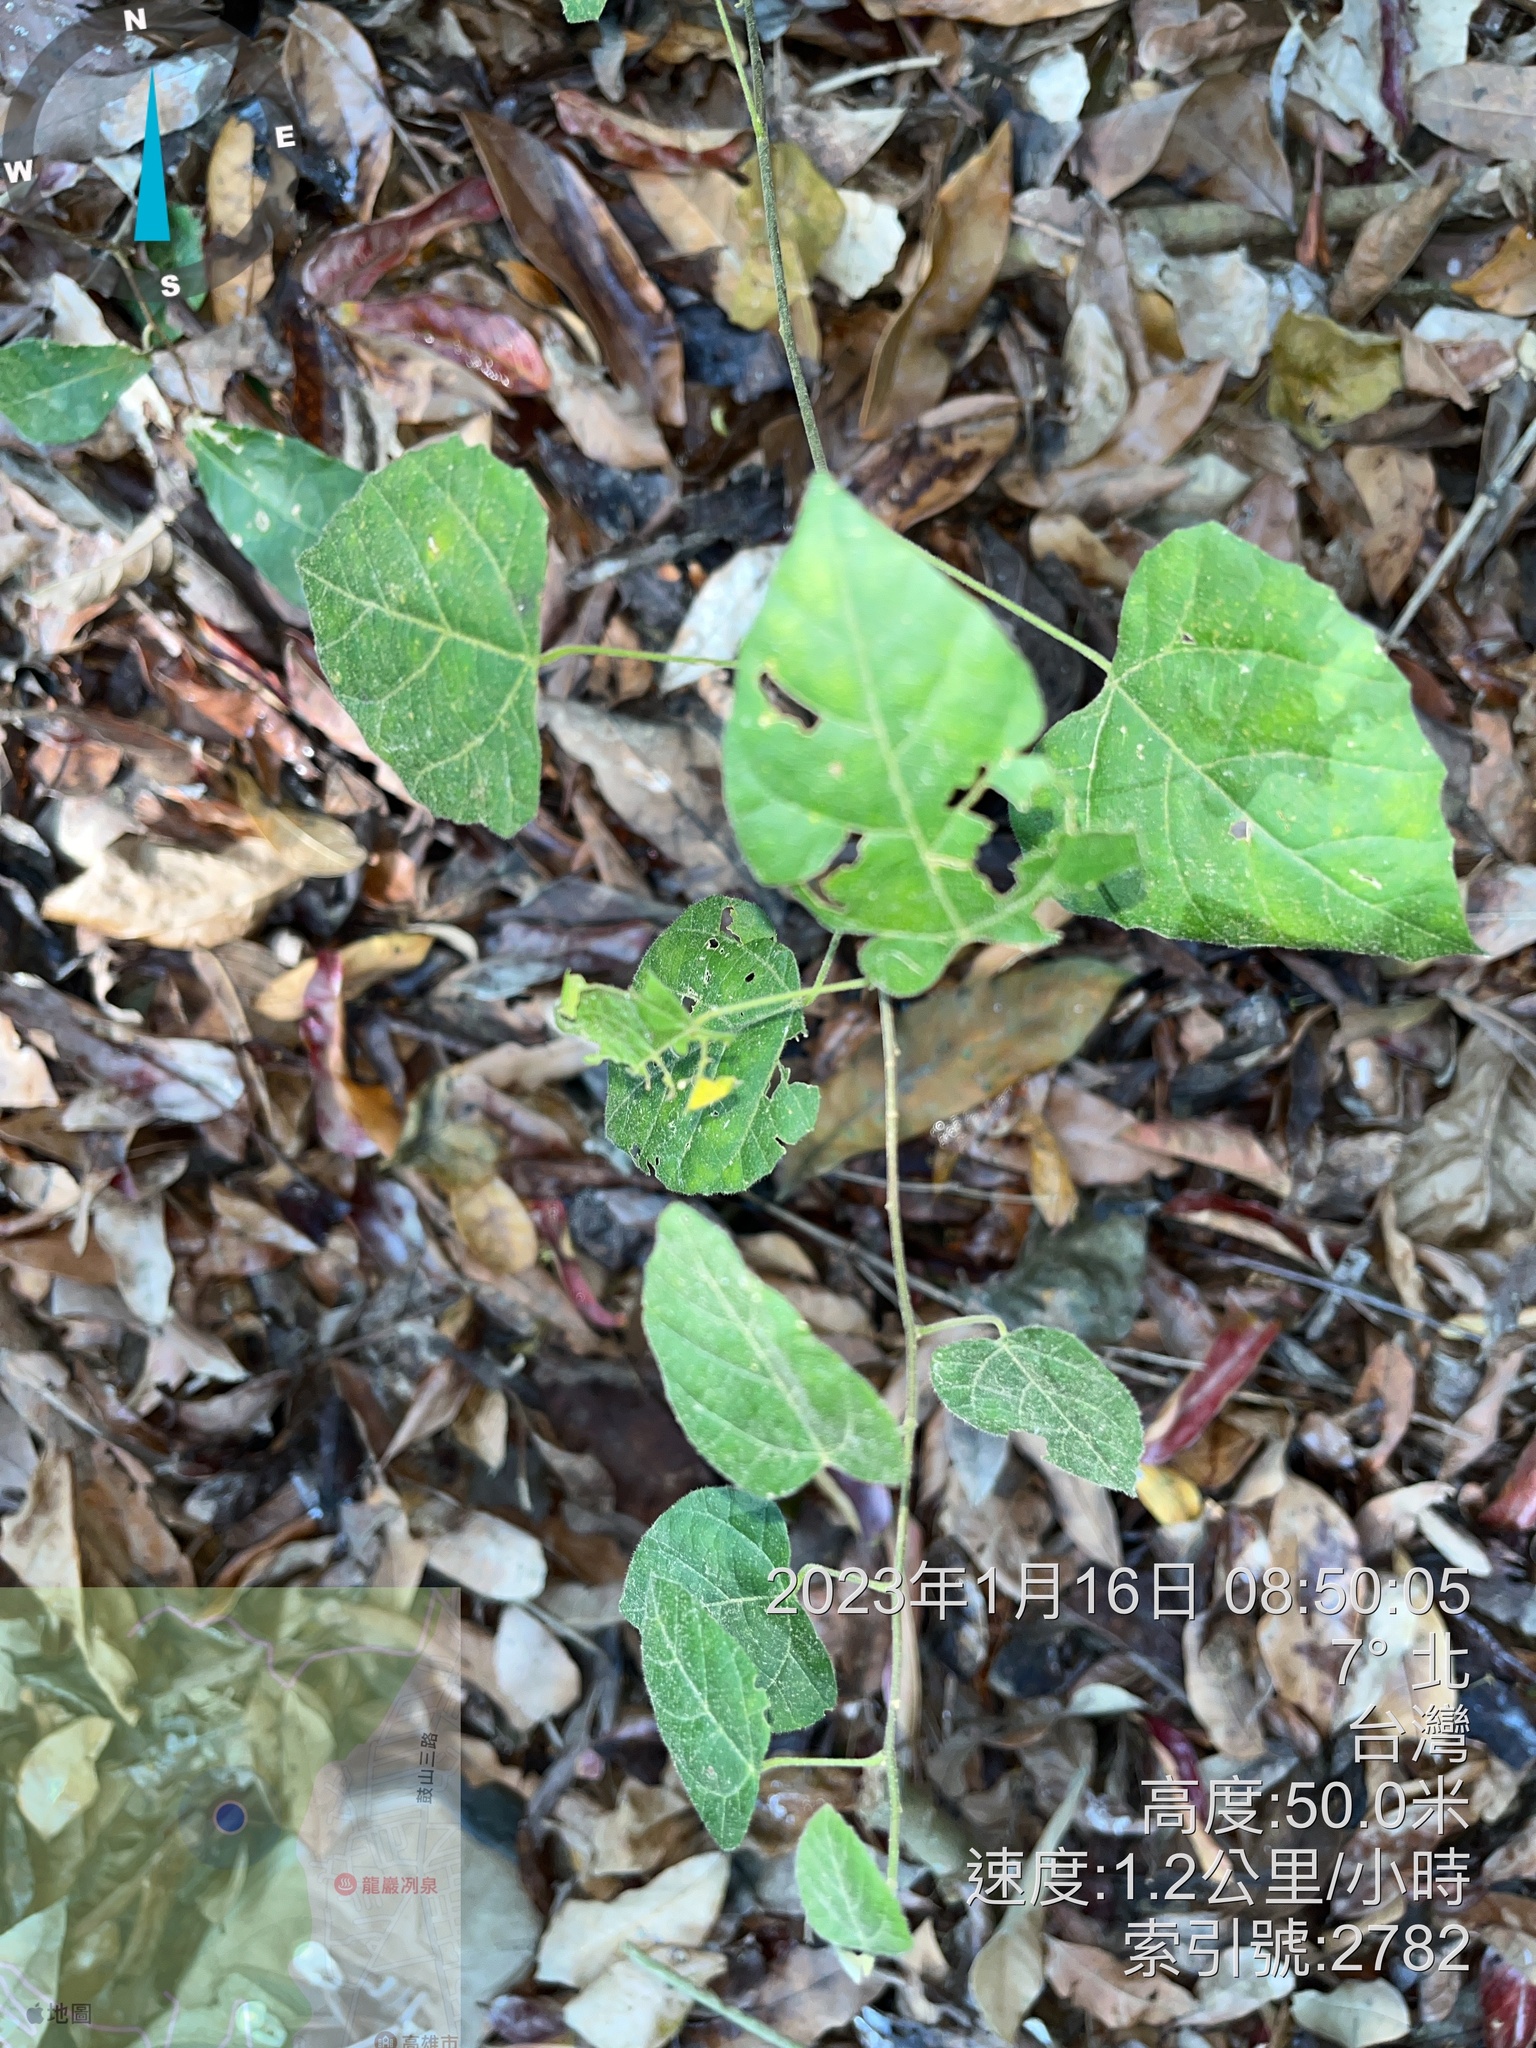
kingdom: Plantae
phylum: Tracheophyta
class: Magnoliopsida
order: Malpighiales
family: Euphorbiaceae
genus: Mallotus
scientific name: Mallotus repandus
